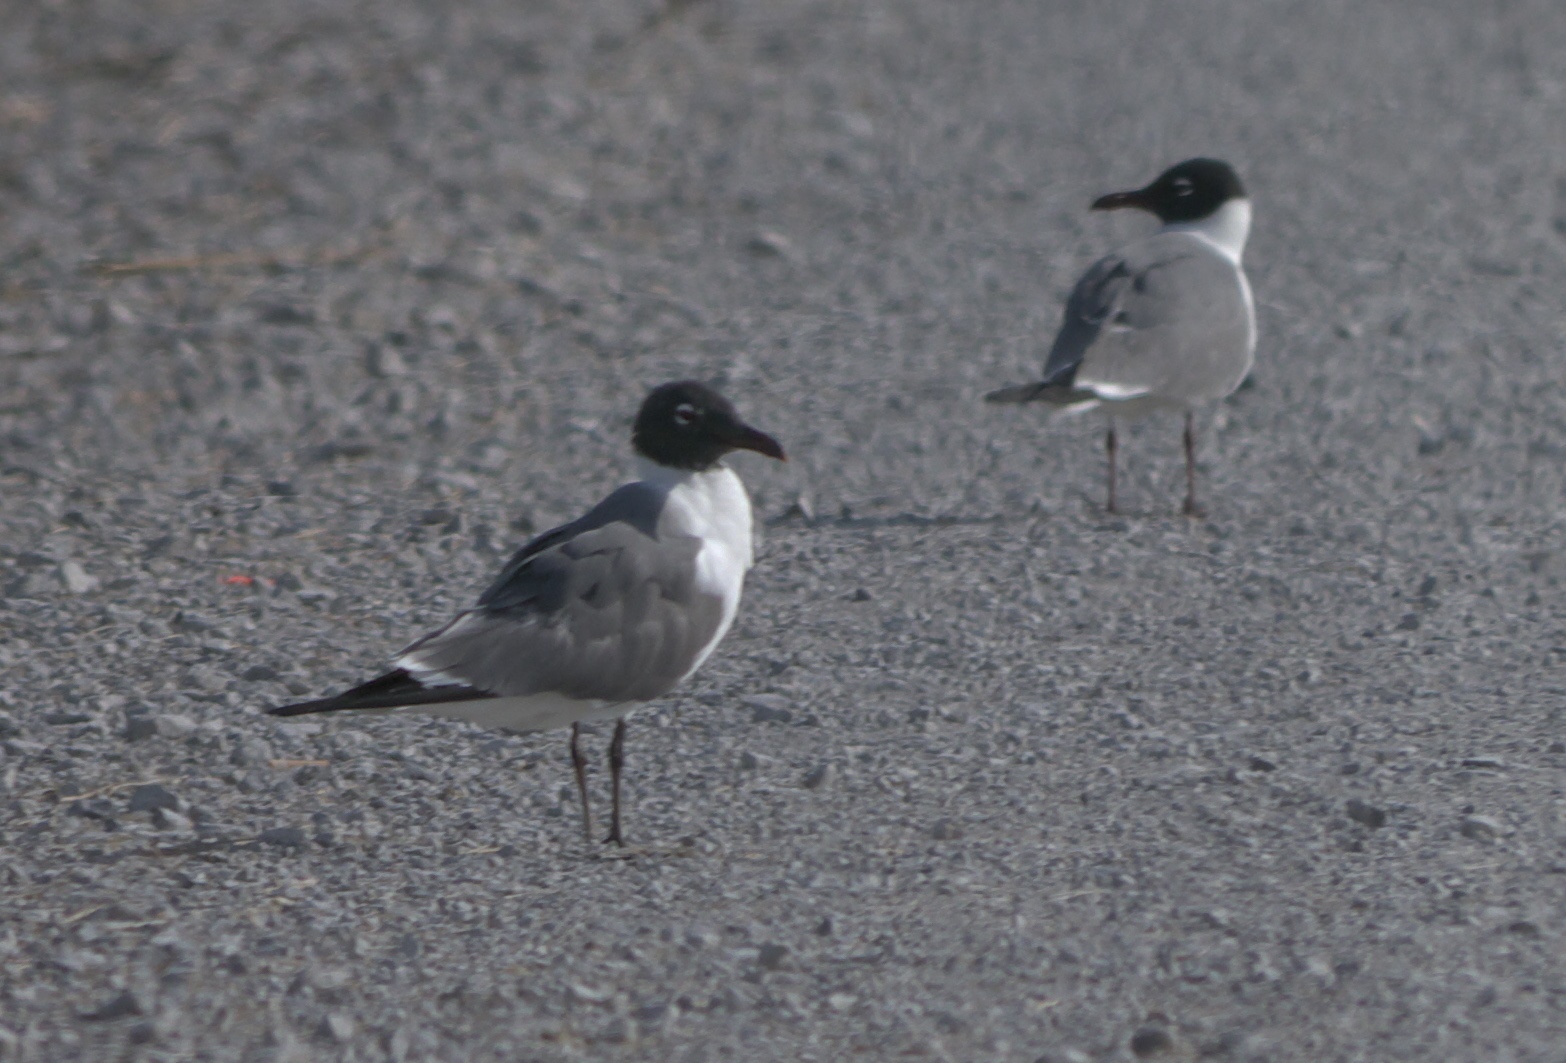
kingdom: Animalia
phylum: Chordata
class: Aves
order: Charadriiformes
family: Laridae
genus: Leucophaeus
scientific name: Leucophaeus atricilla
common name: Laughing gull
